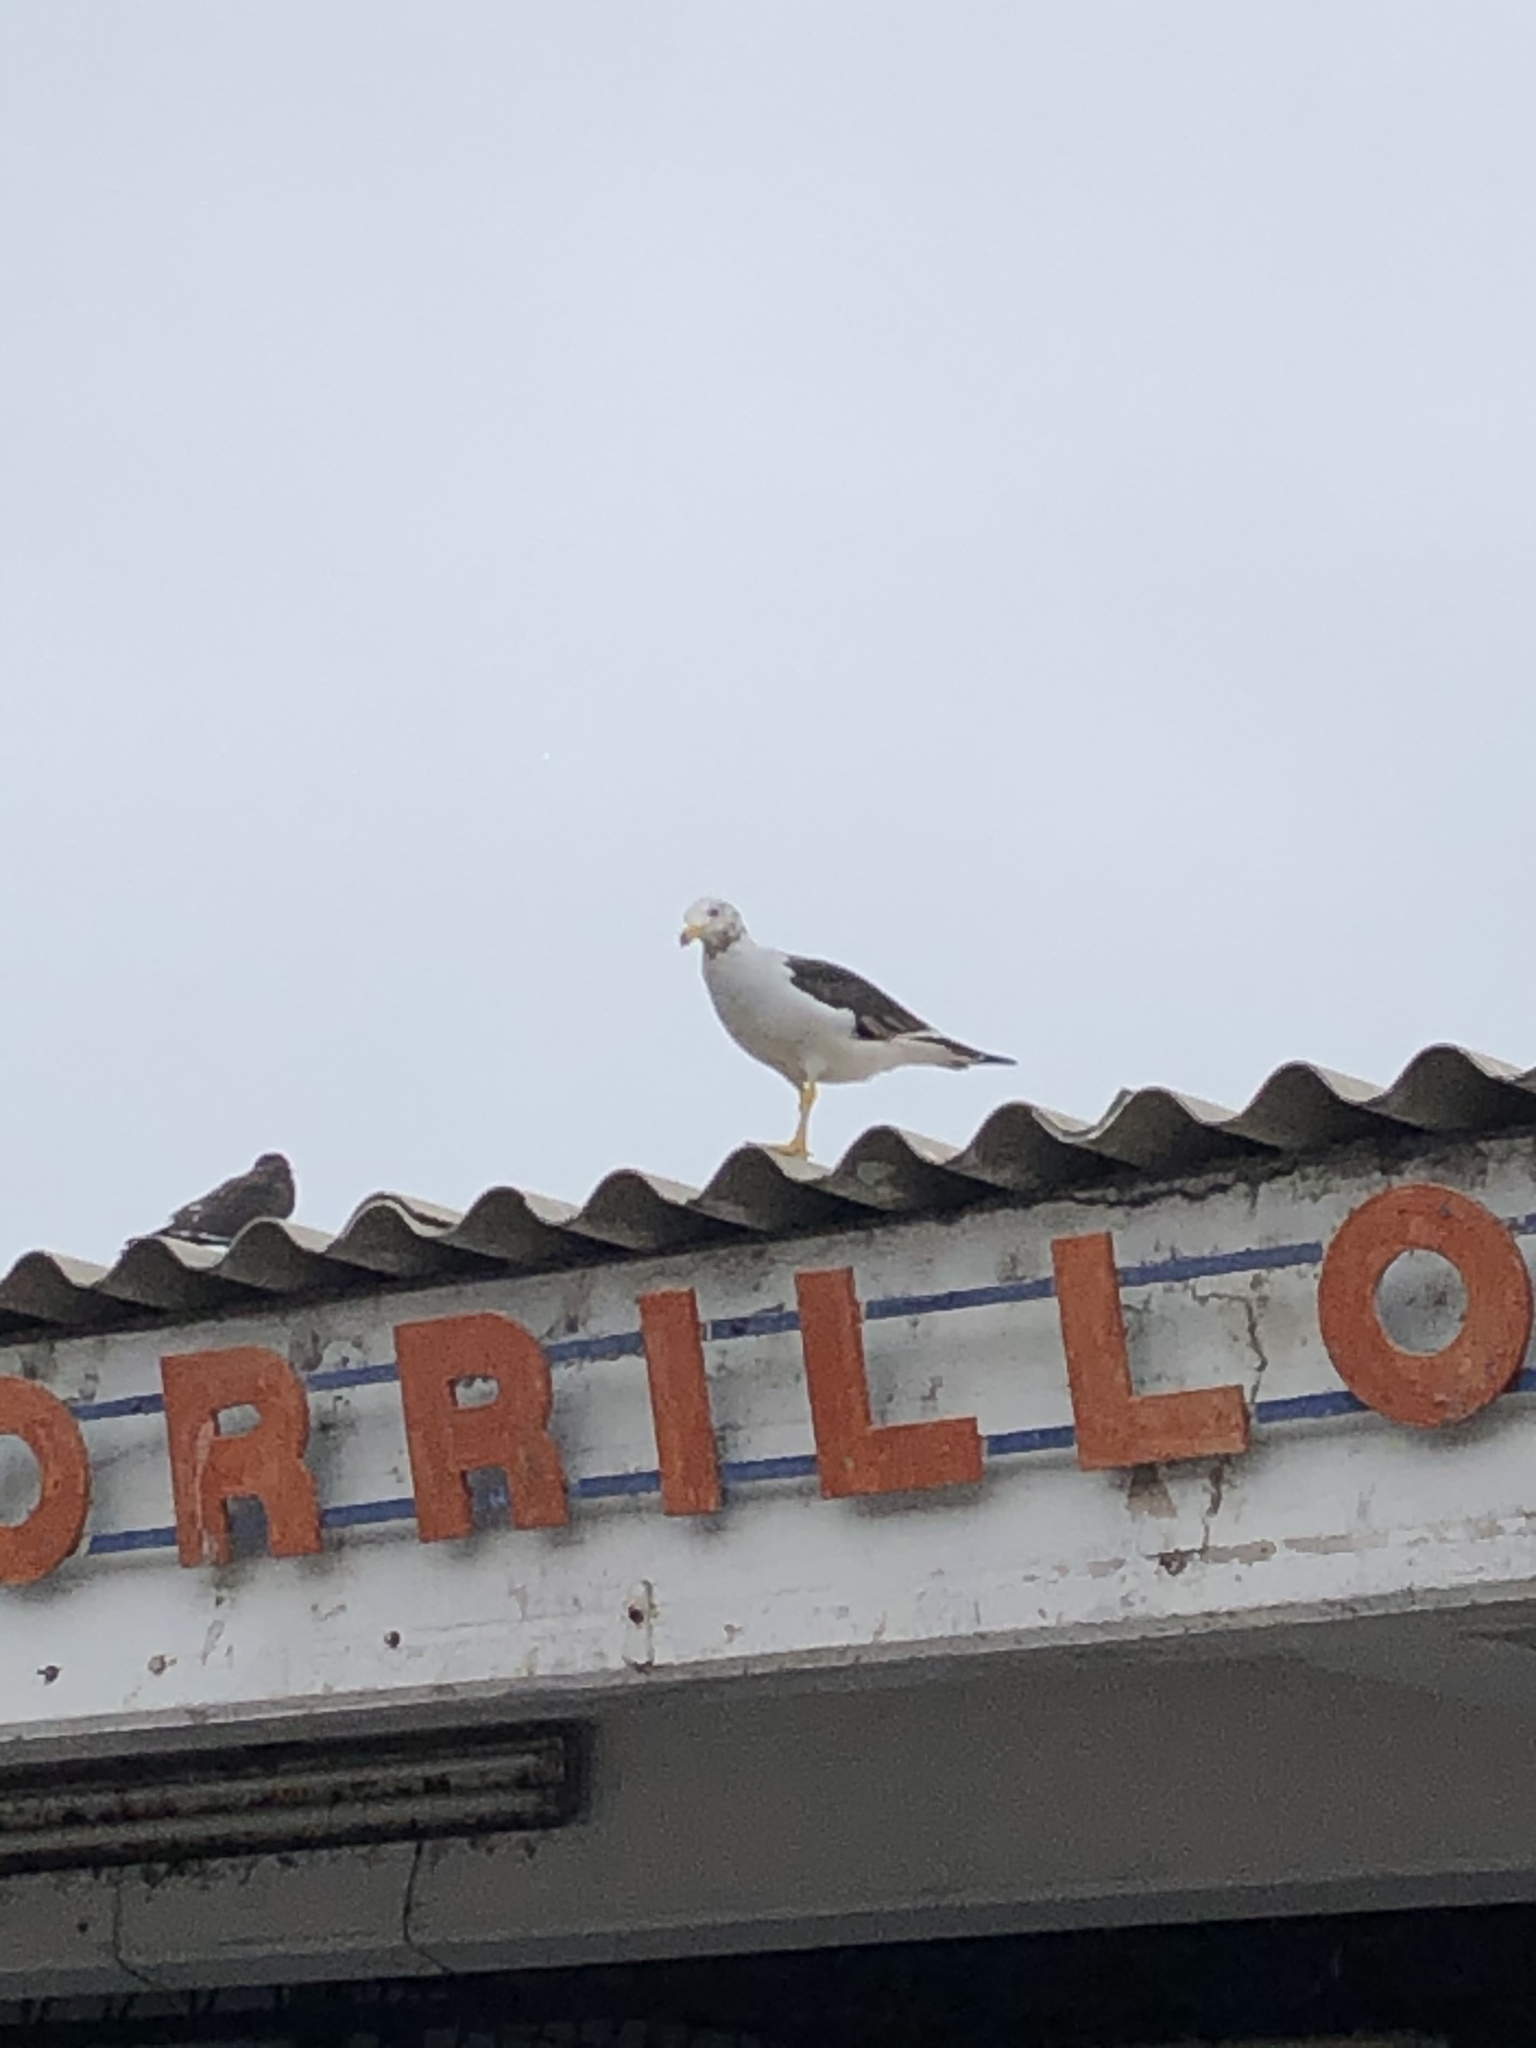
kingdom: Animalia
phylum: Chordata
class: Aves
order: Charadriiformes
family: Laridae
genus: Larus
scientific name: Larus belcheri
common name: Belcher's gull
